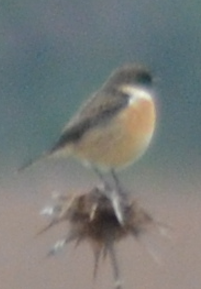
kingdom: Animalia
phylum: Chordata
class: Aves
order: Passeriformes
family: Muscicapidae
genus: Saxicola
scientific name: Saxicola rubicola
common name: European stonechat
